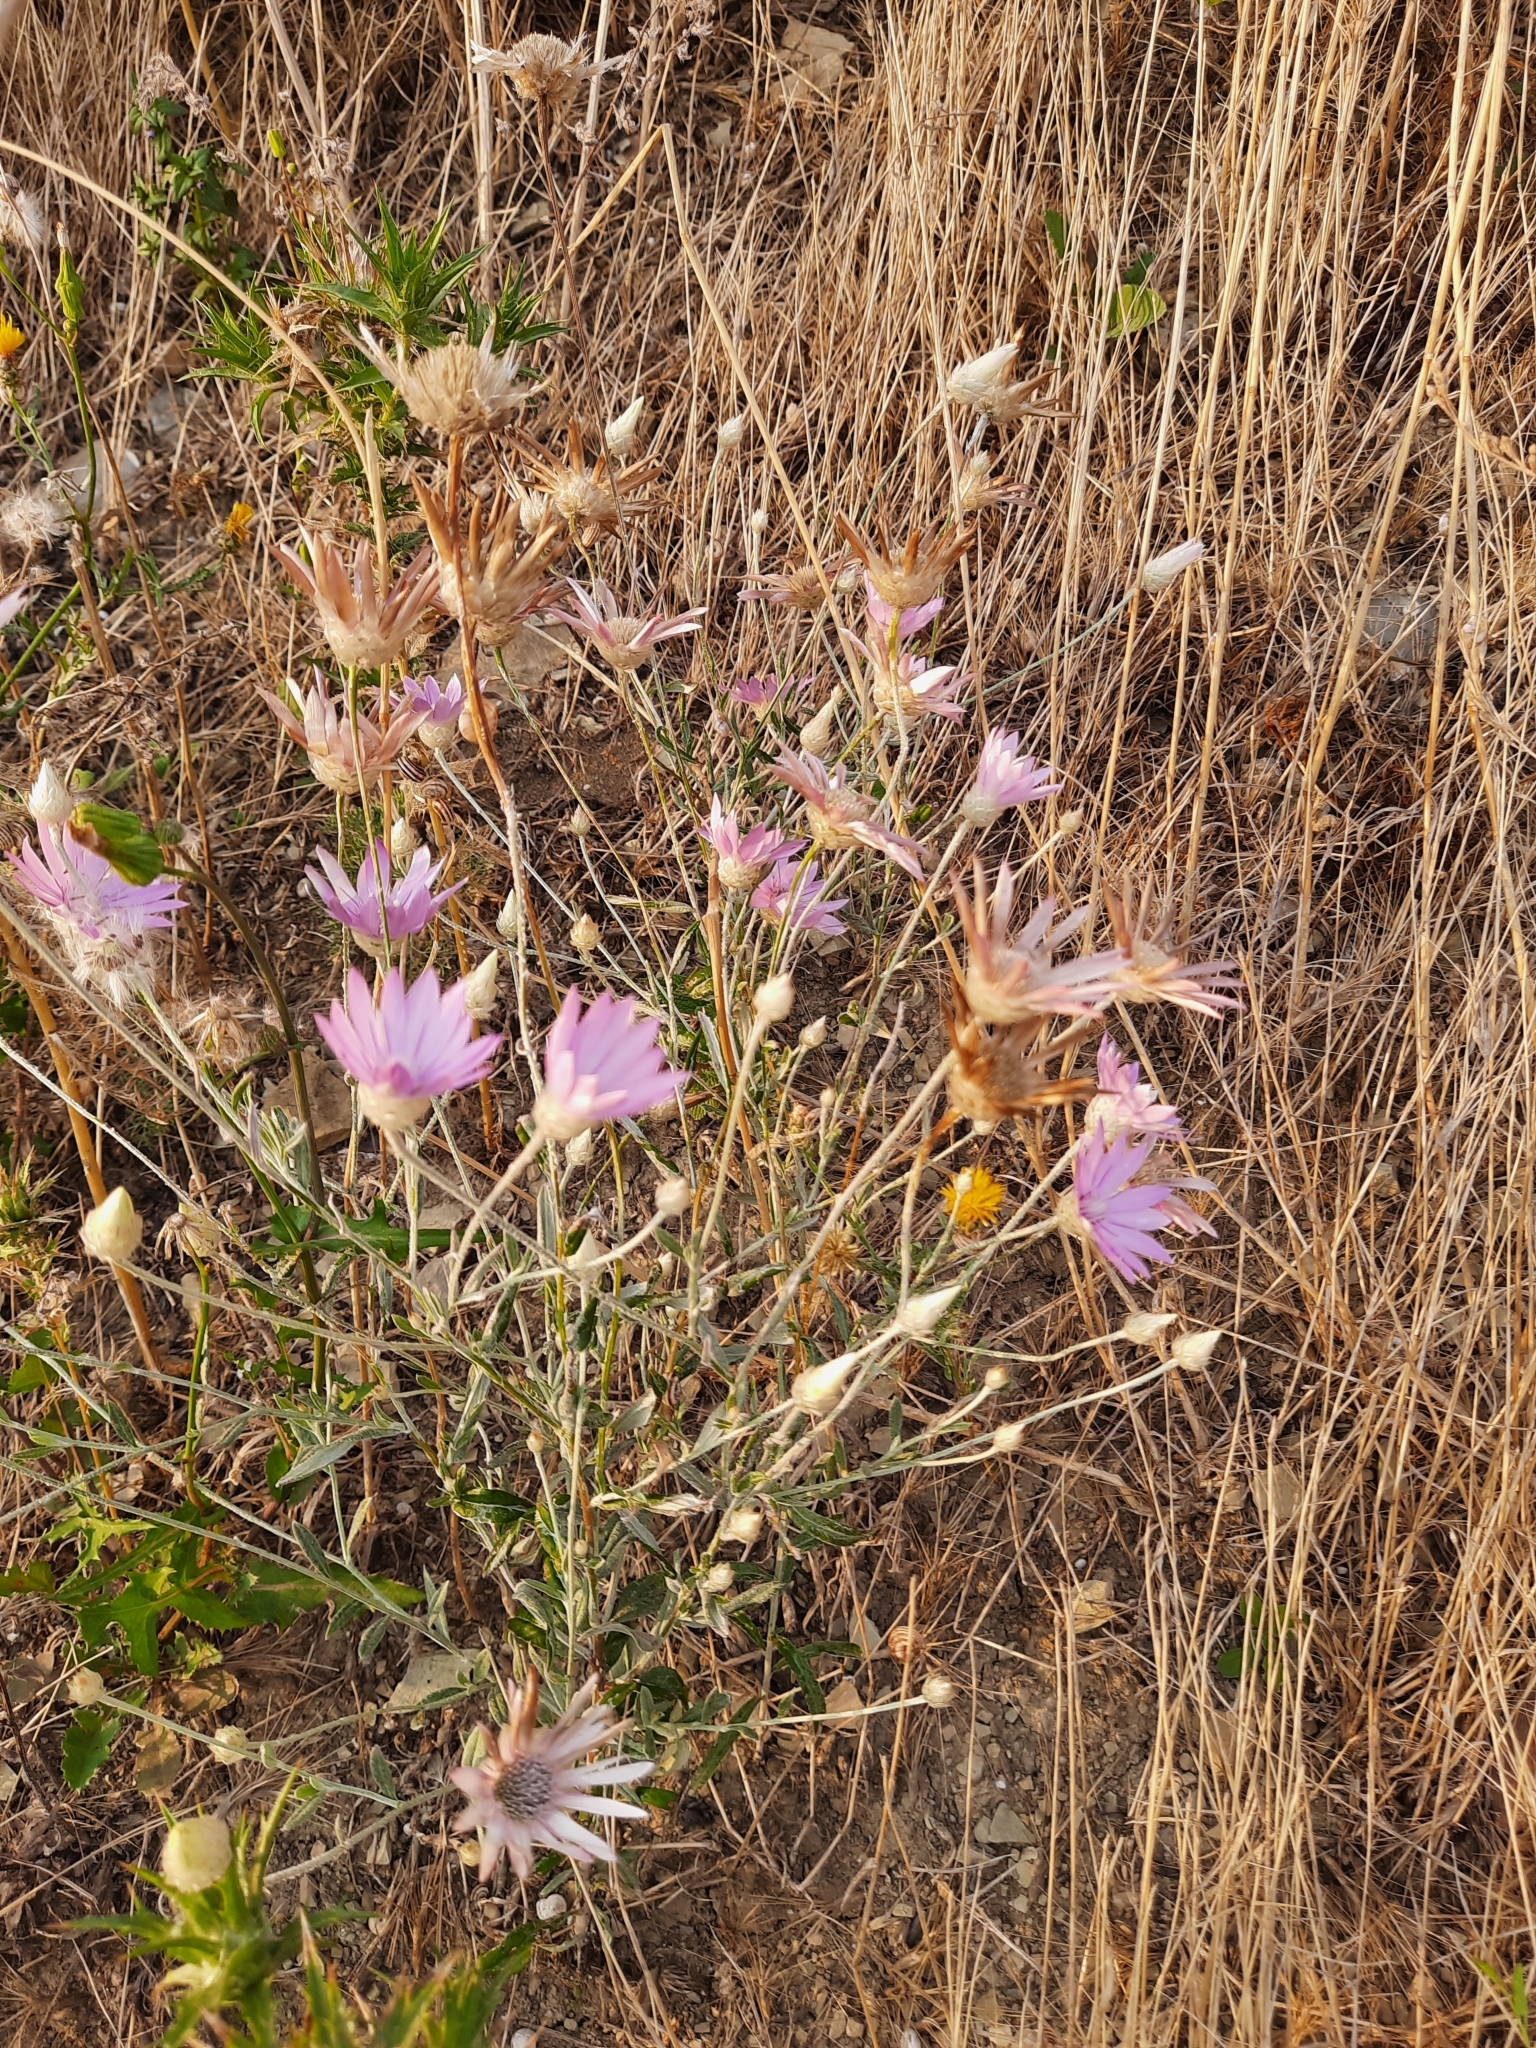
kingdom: Plantae
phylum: Tracheophyta
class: Magnoliopsida
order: Asterales
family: Asteraceae
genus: Xeranthemum
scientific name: Xeranthemum annuum
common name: Immortelle
